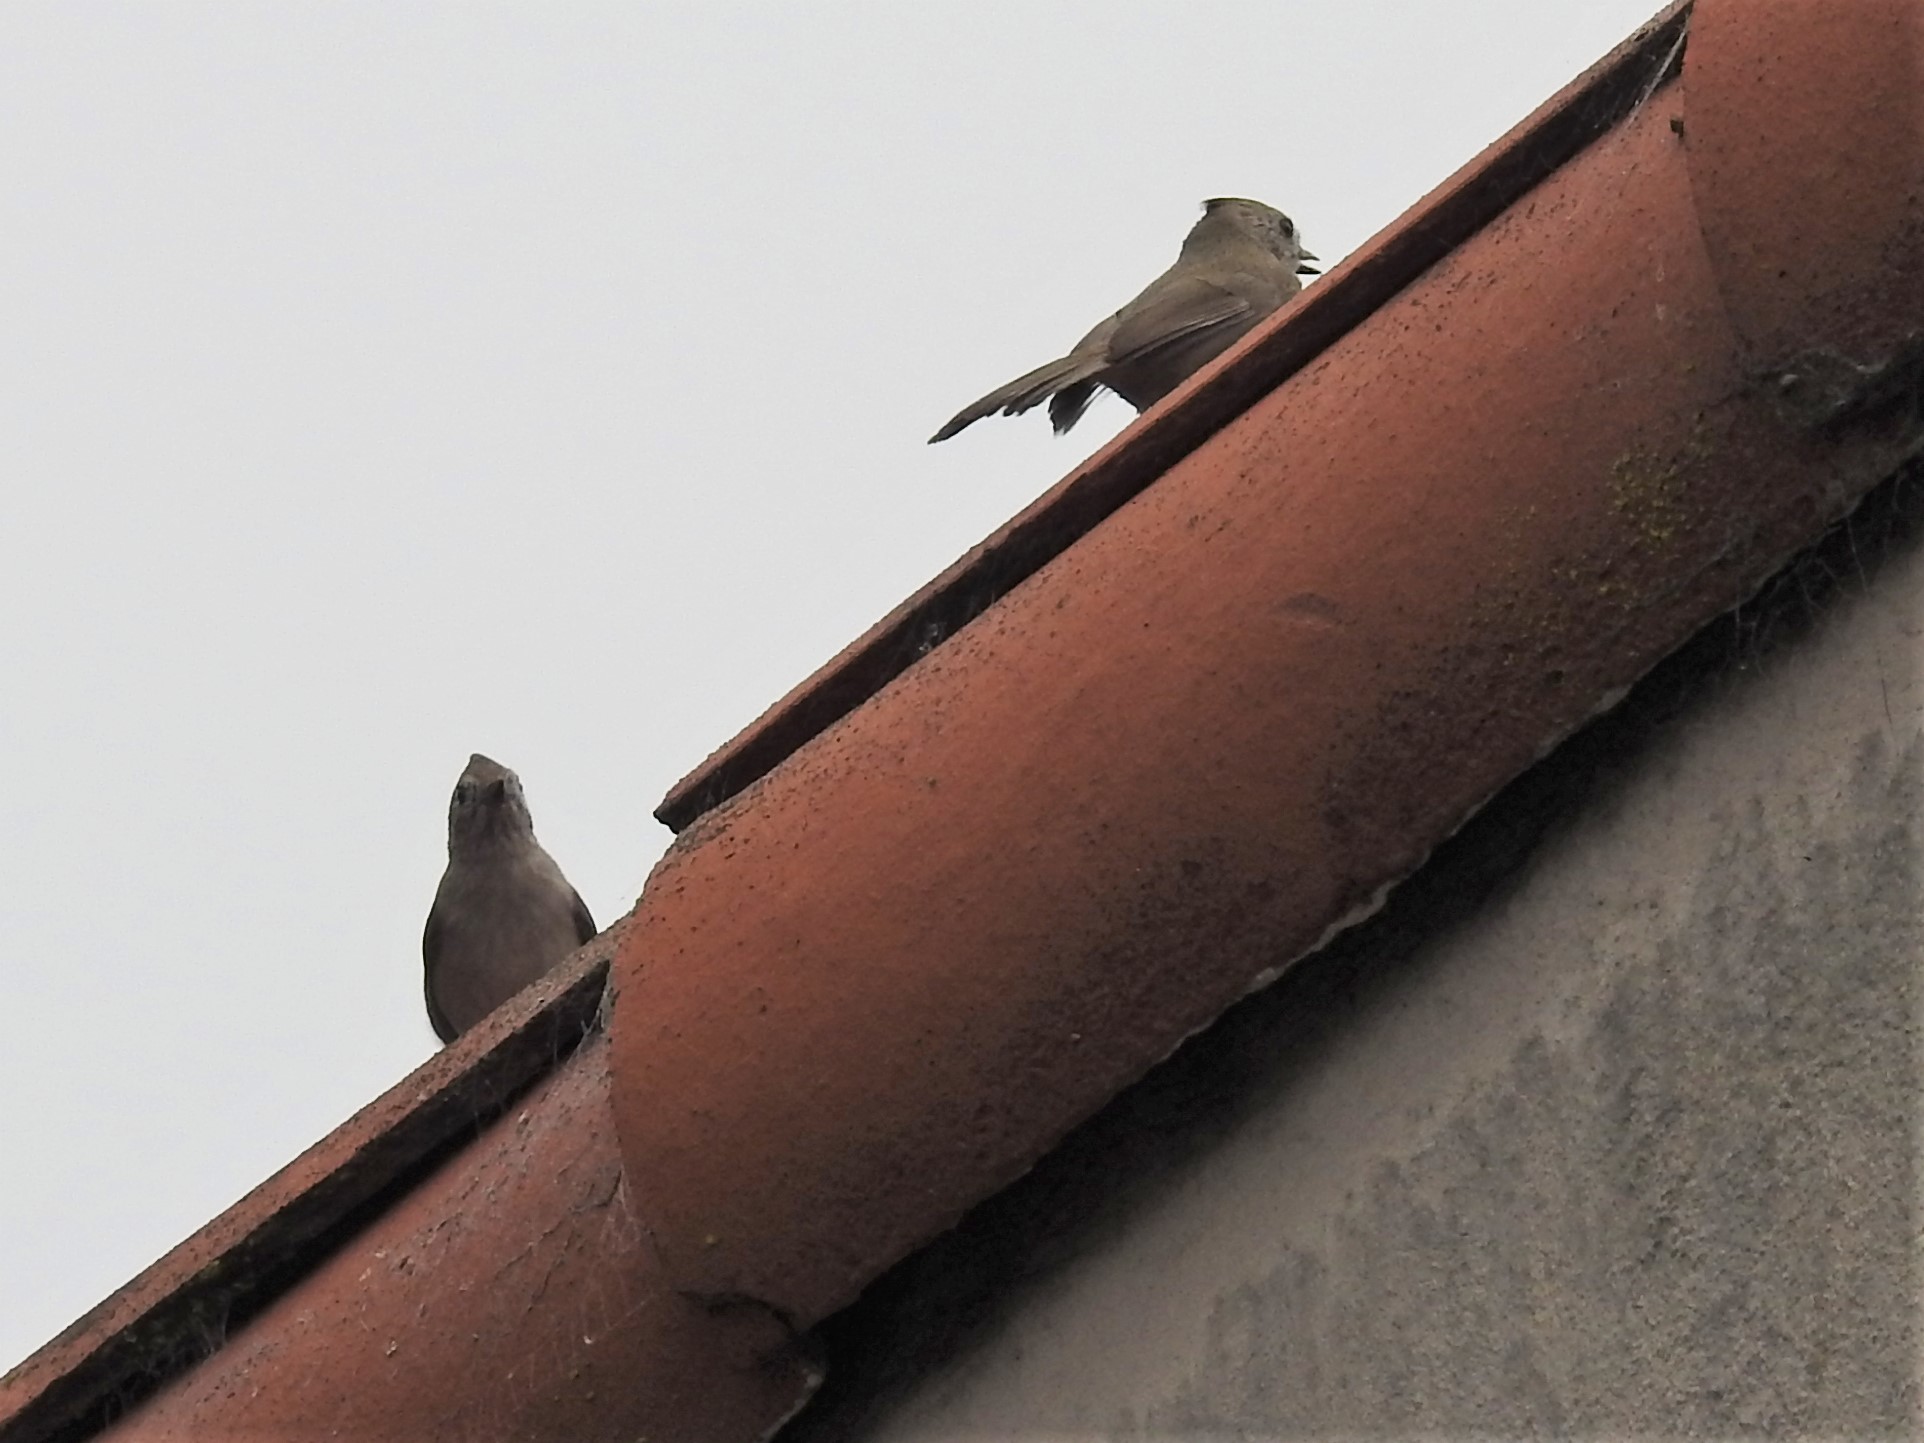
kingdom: Animalia
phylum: Chordata
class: Aves
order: Passeriformes
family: Paridae
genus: Baeolophus
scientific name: Baeolophus inornatus
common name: Oak titmouse
